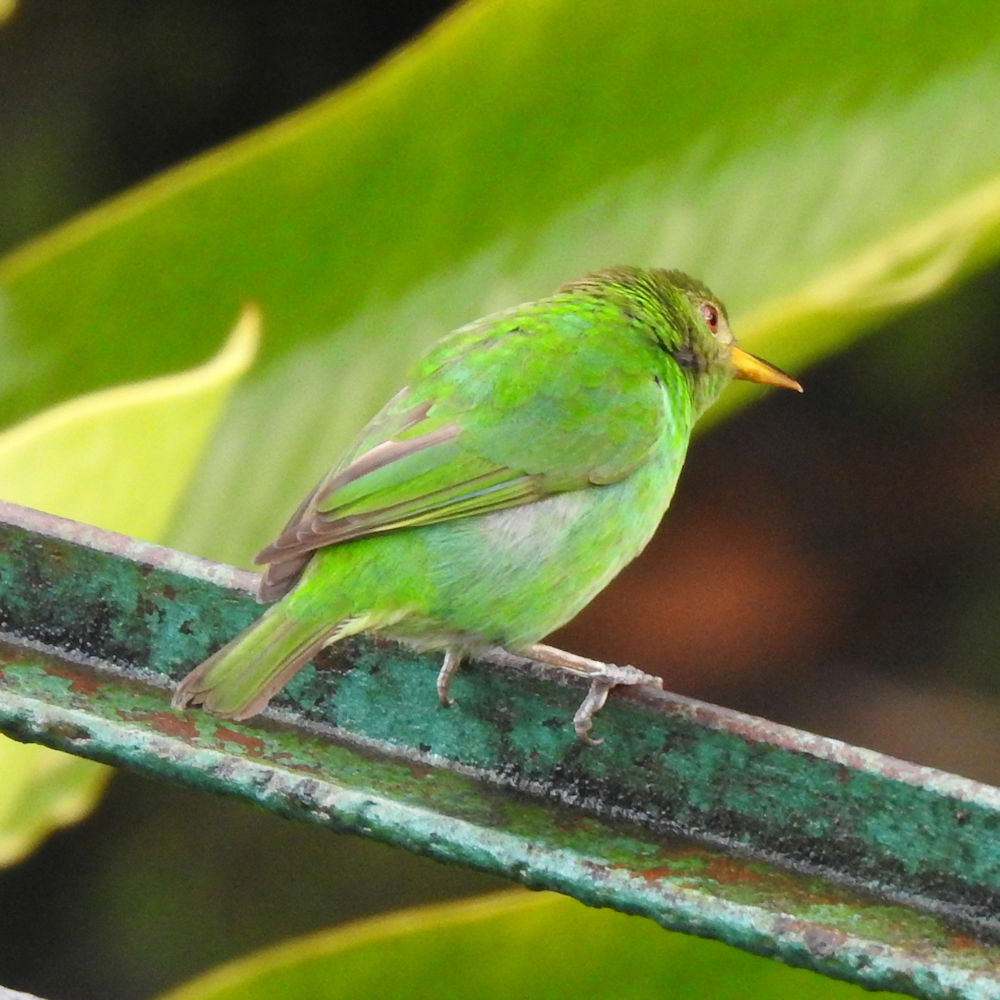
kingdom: Animalia
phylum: Chordata
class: Aves
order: Passeriformes
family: Thraupidae
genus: Chlorophanes
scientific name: Chlorophanes spiza
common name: Green honeycreeper
